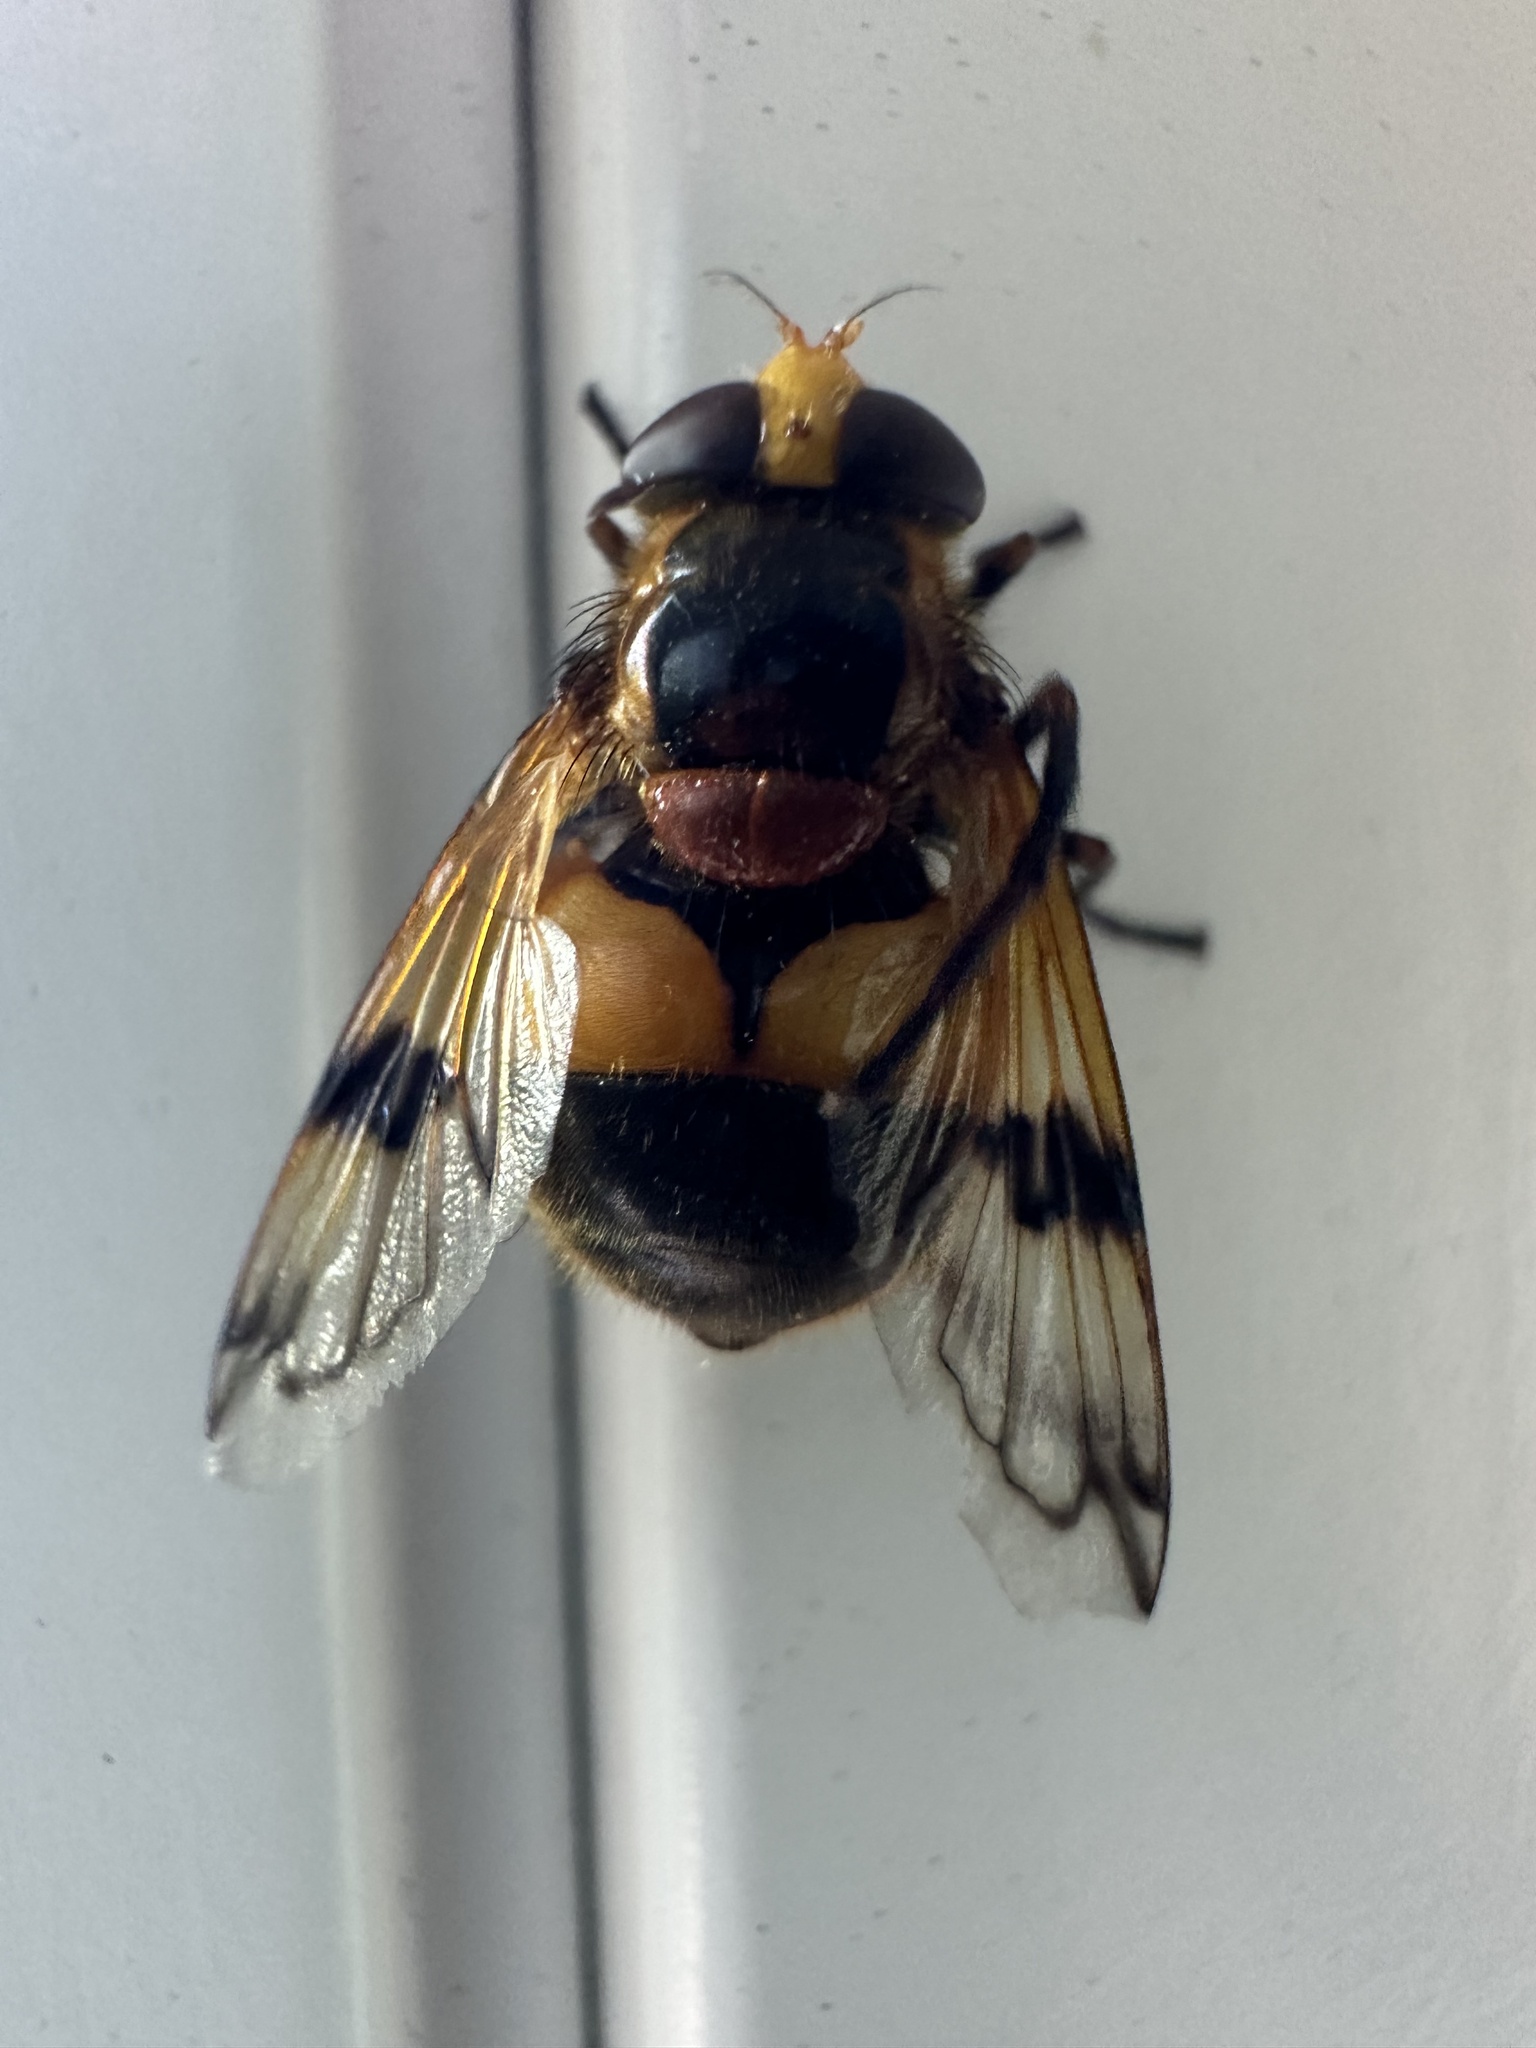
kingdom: Animalia
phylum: Arthropoda
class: Insecta
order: Diptera
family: Syrphidae
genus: Volucella
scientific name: Volucella inflata
